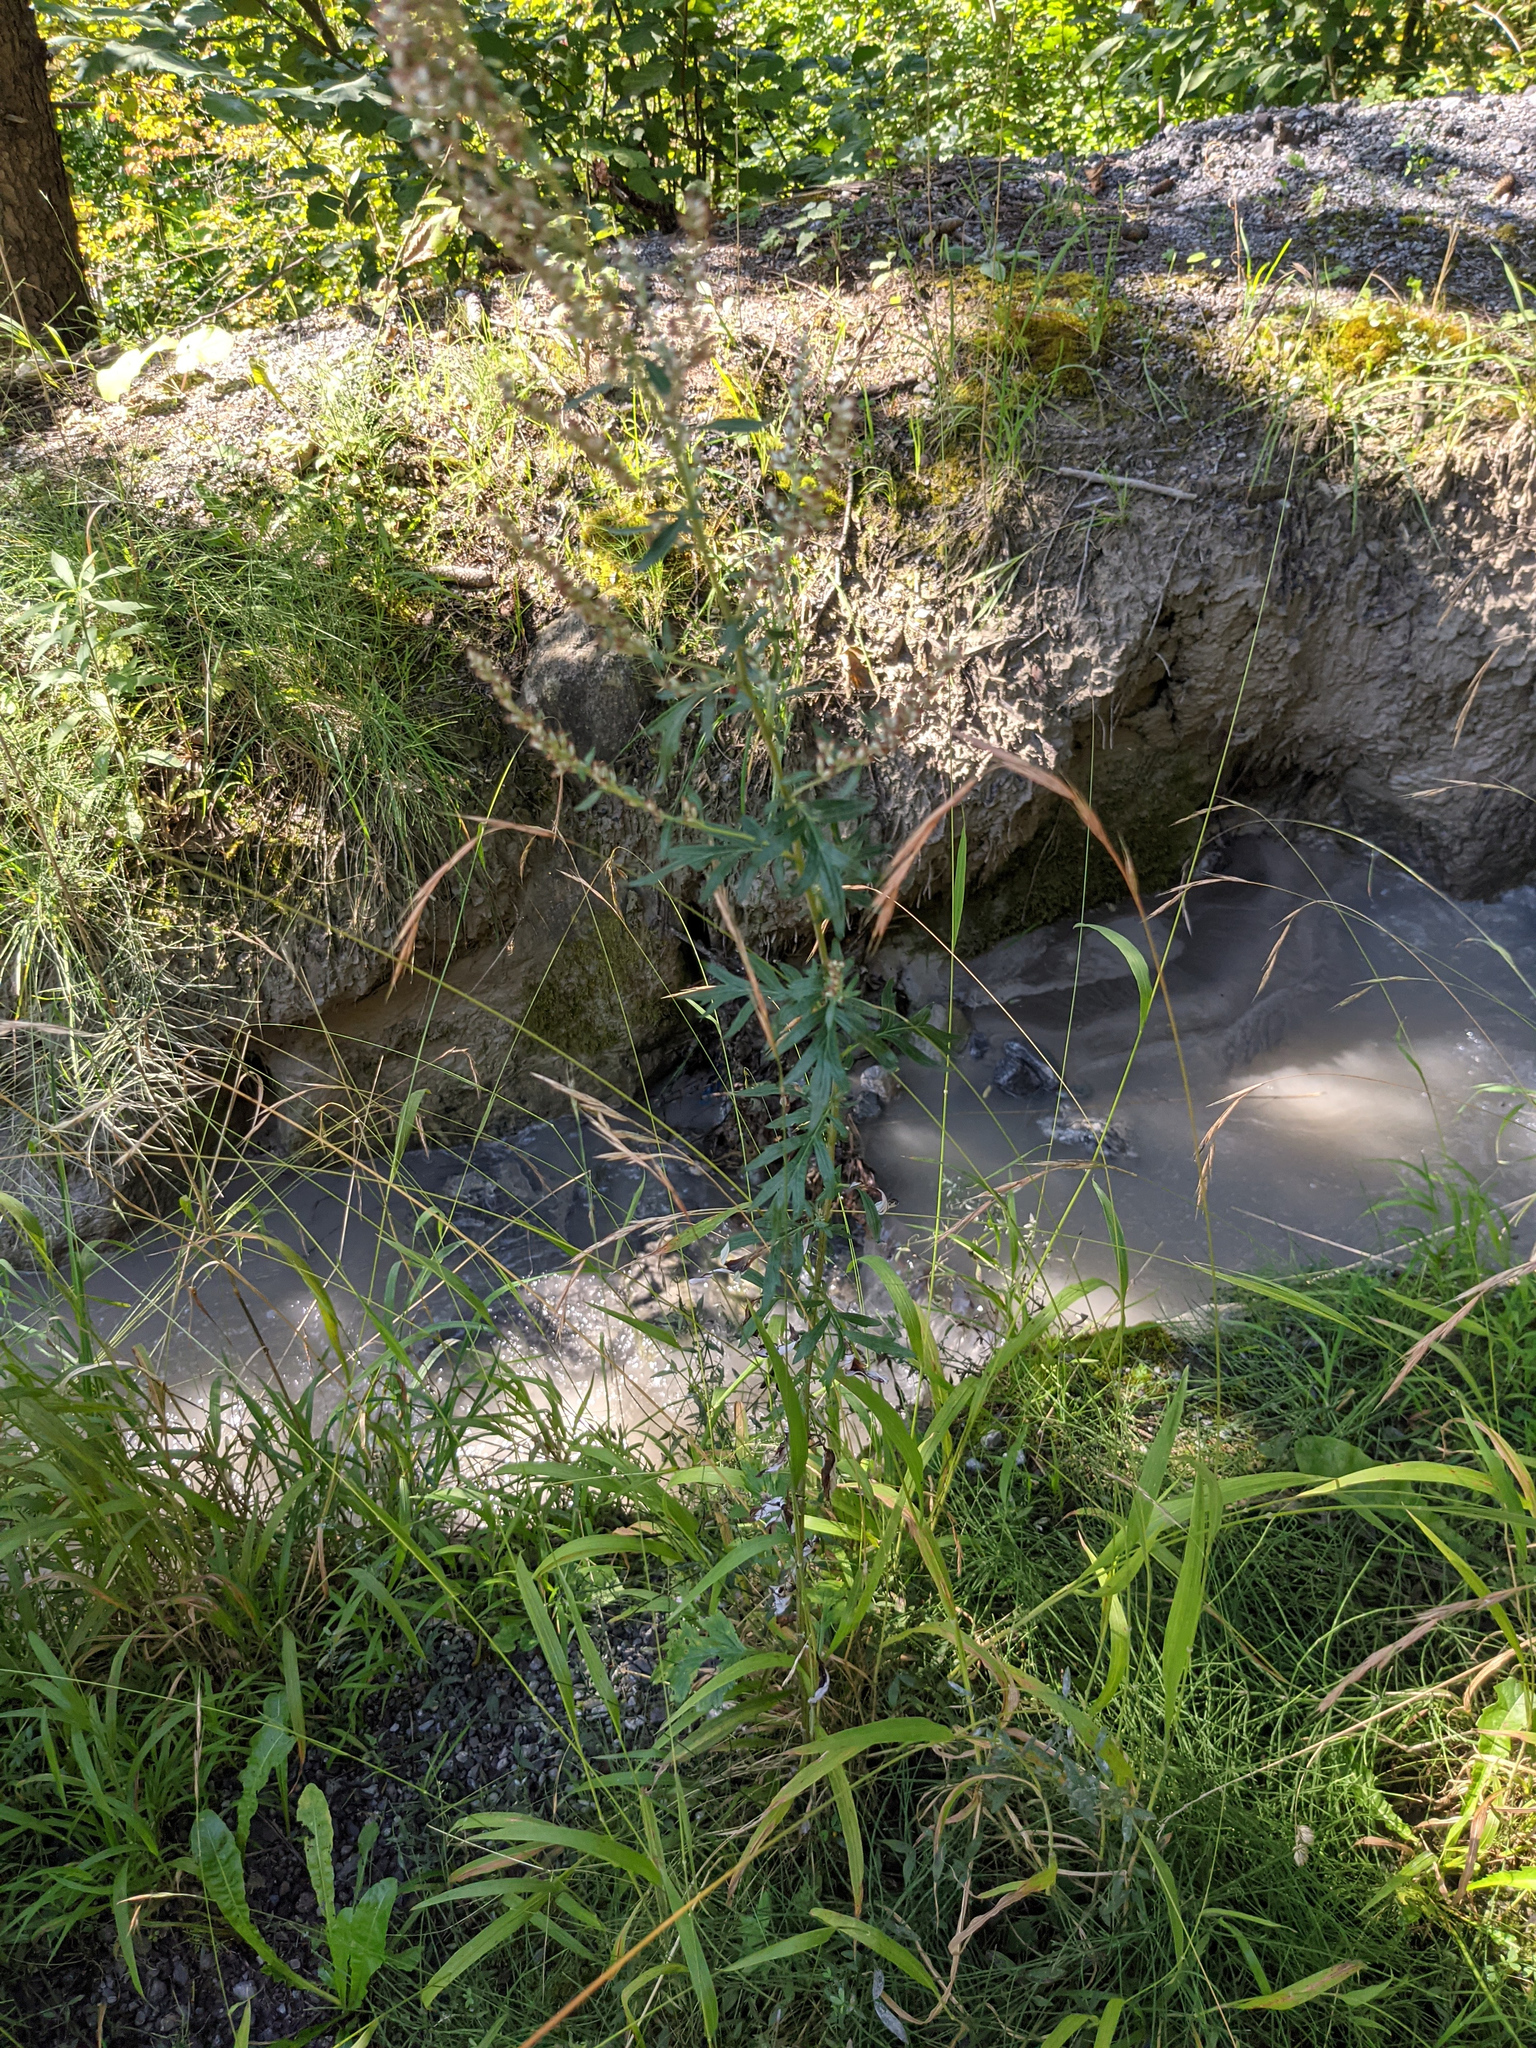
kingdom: Plantae
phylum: Tracheophyta
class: Magnoliopsida
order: Asterales
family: Asteraceae
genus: Artemisia
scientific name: Artemisia vulgaris
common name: Mugwort
